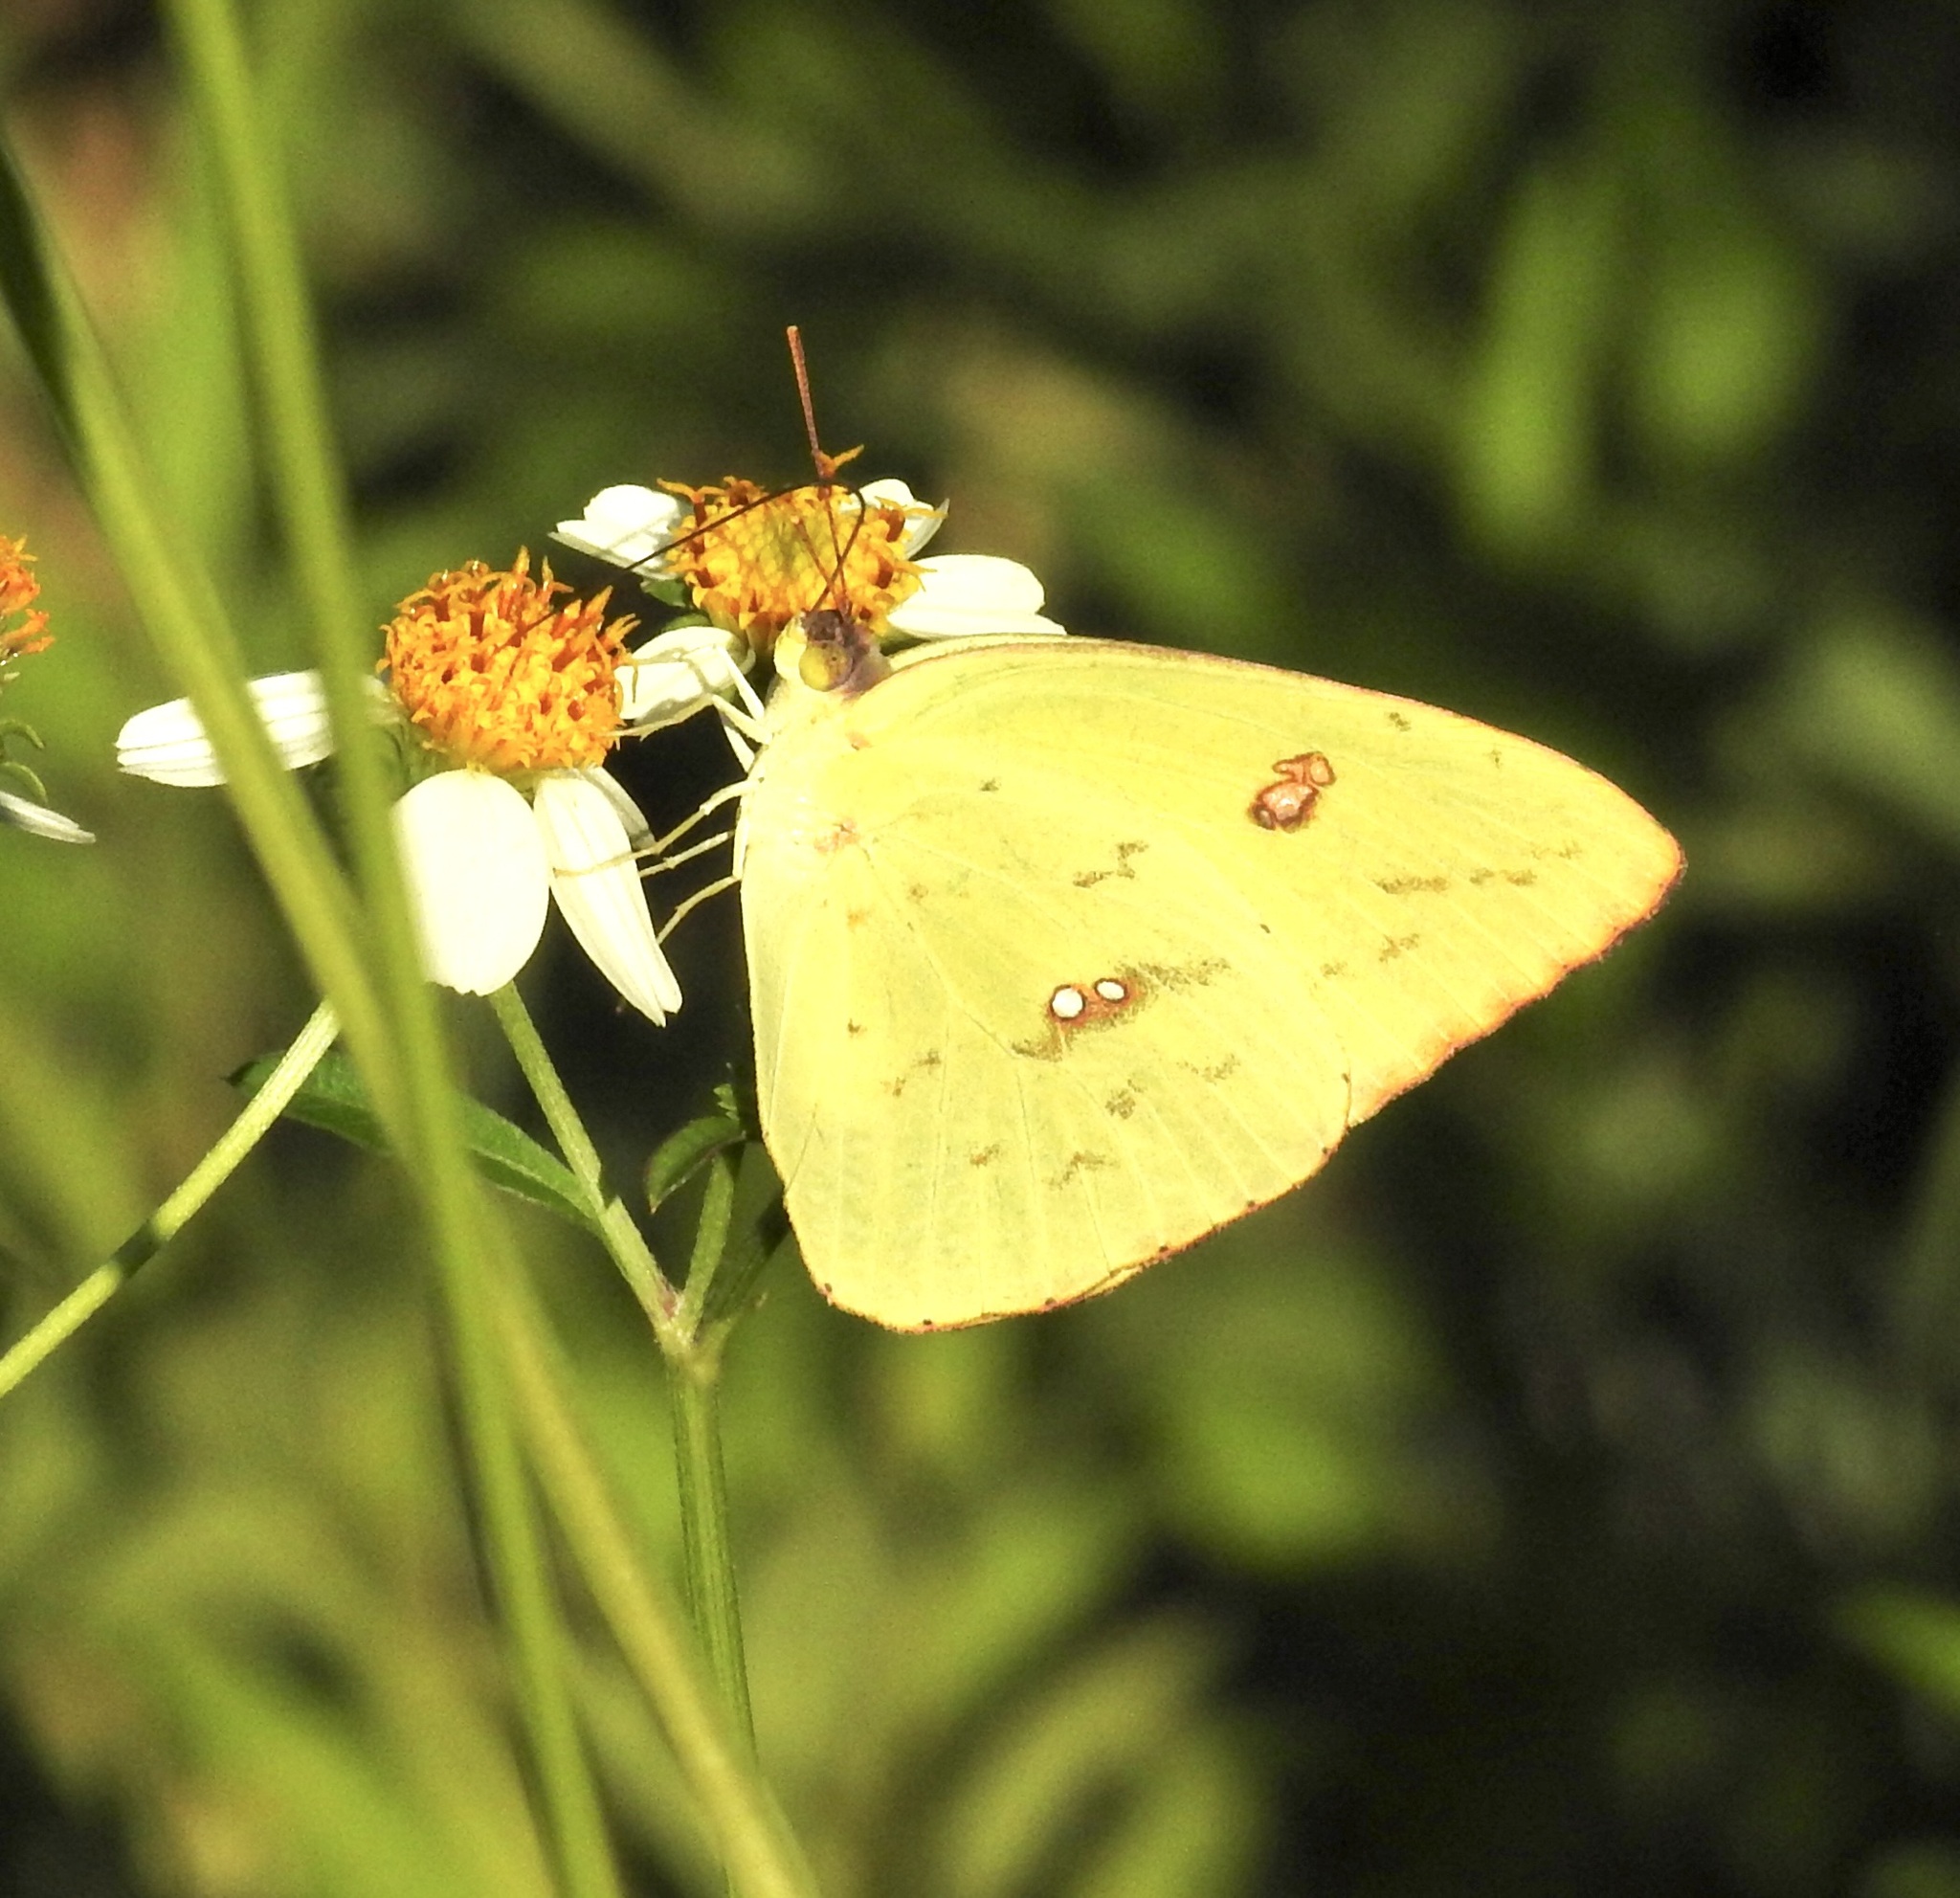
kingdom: Animalia
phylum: Arthropoda
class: Insecta
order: Lepidoptera
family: Pieridae
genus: Phoebis
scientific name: Phoebis sennae
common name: Cloudless sulphur
